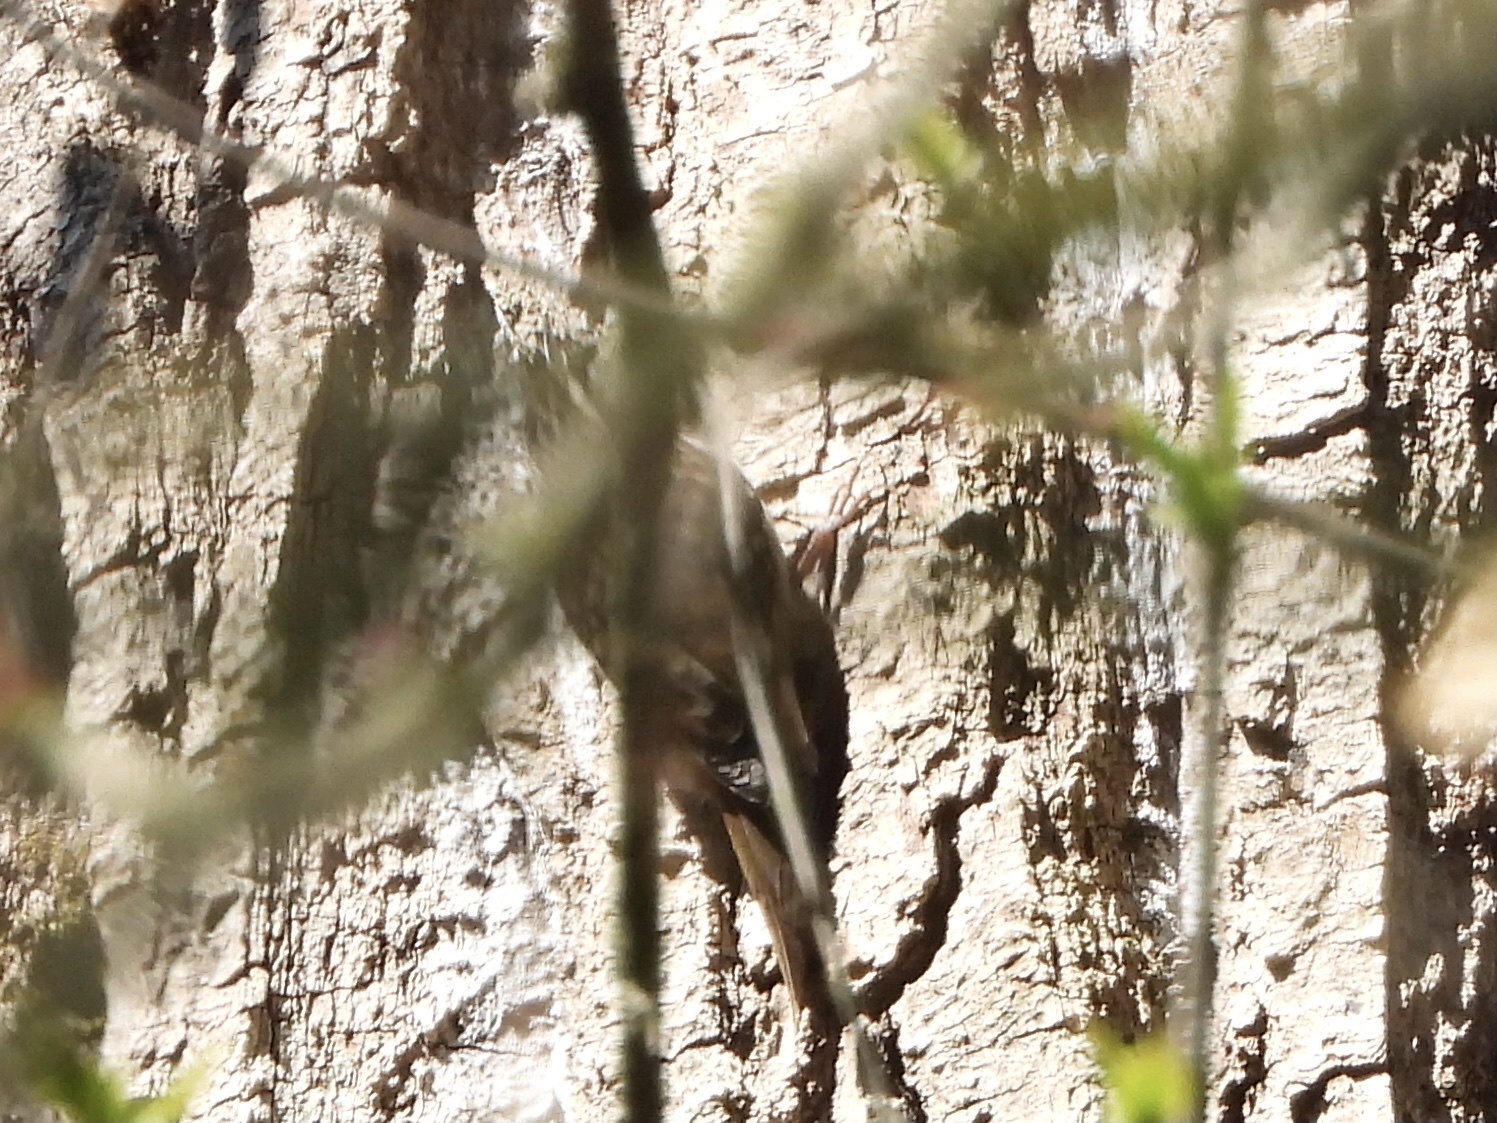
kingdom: Animalia
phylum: Chordata
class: Aves
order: Passeriformes
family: Certhiidae
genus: Certhia
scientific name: Certhia americana
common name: Brown creeper
